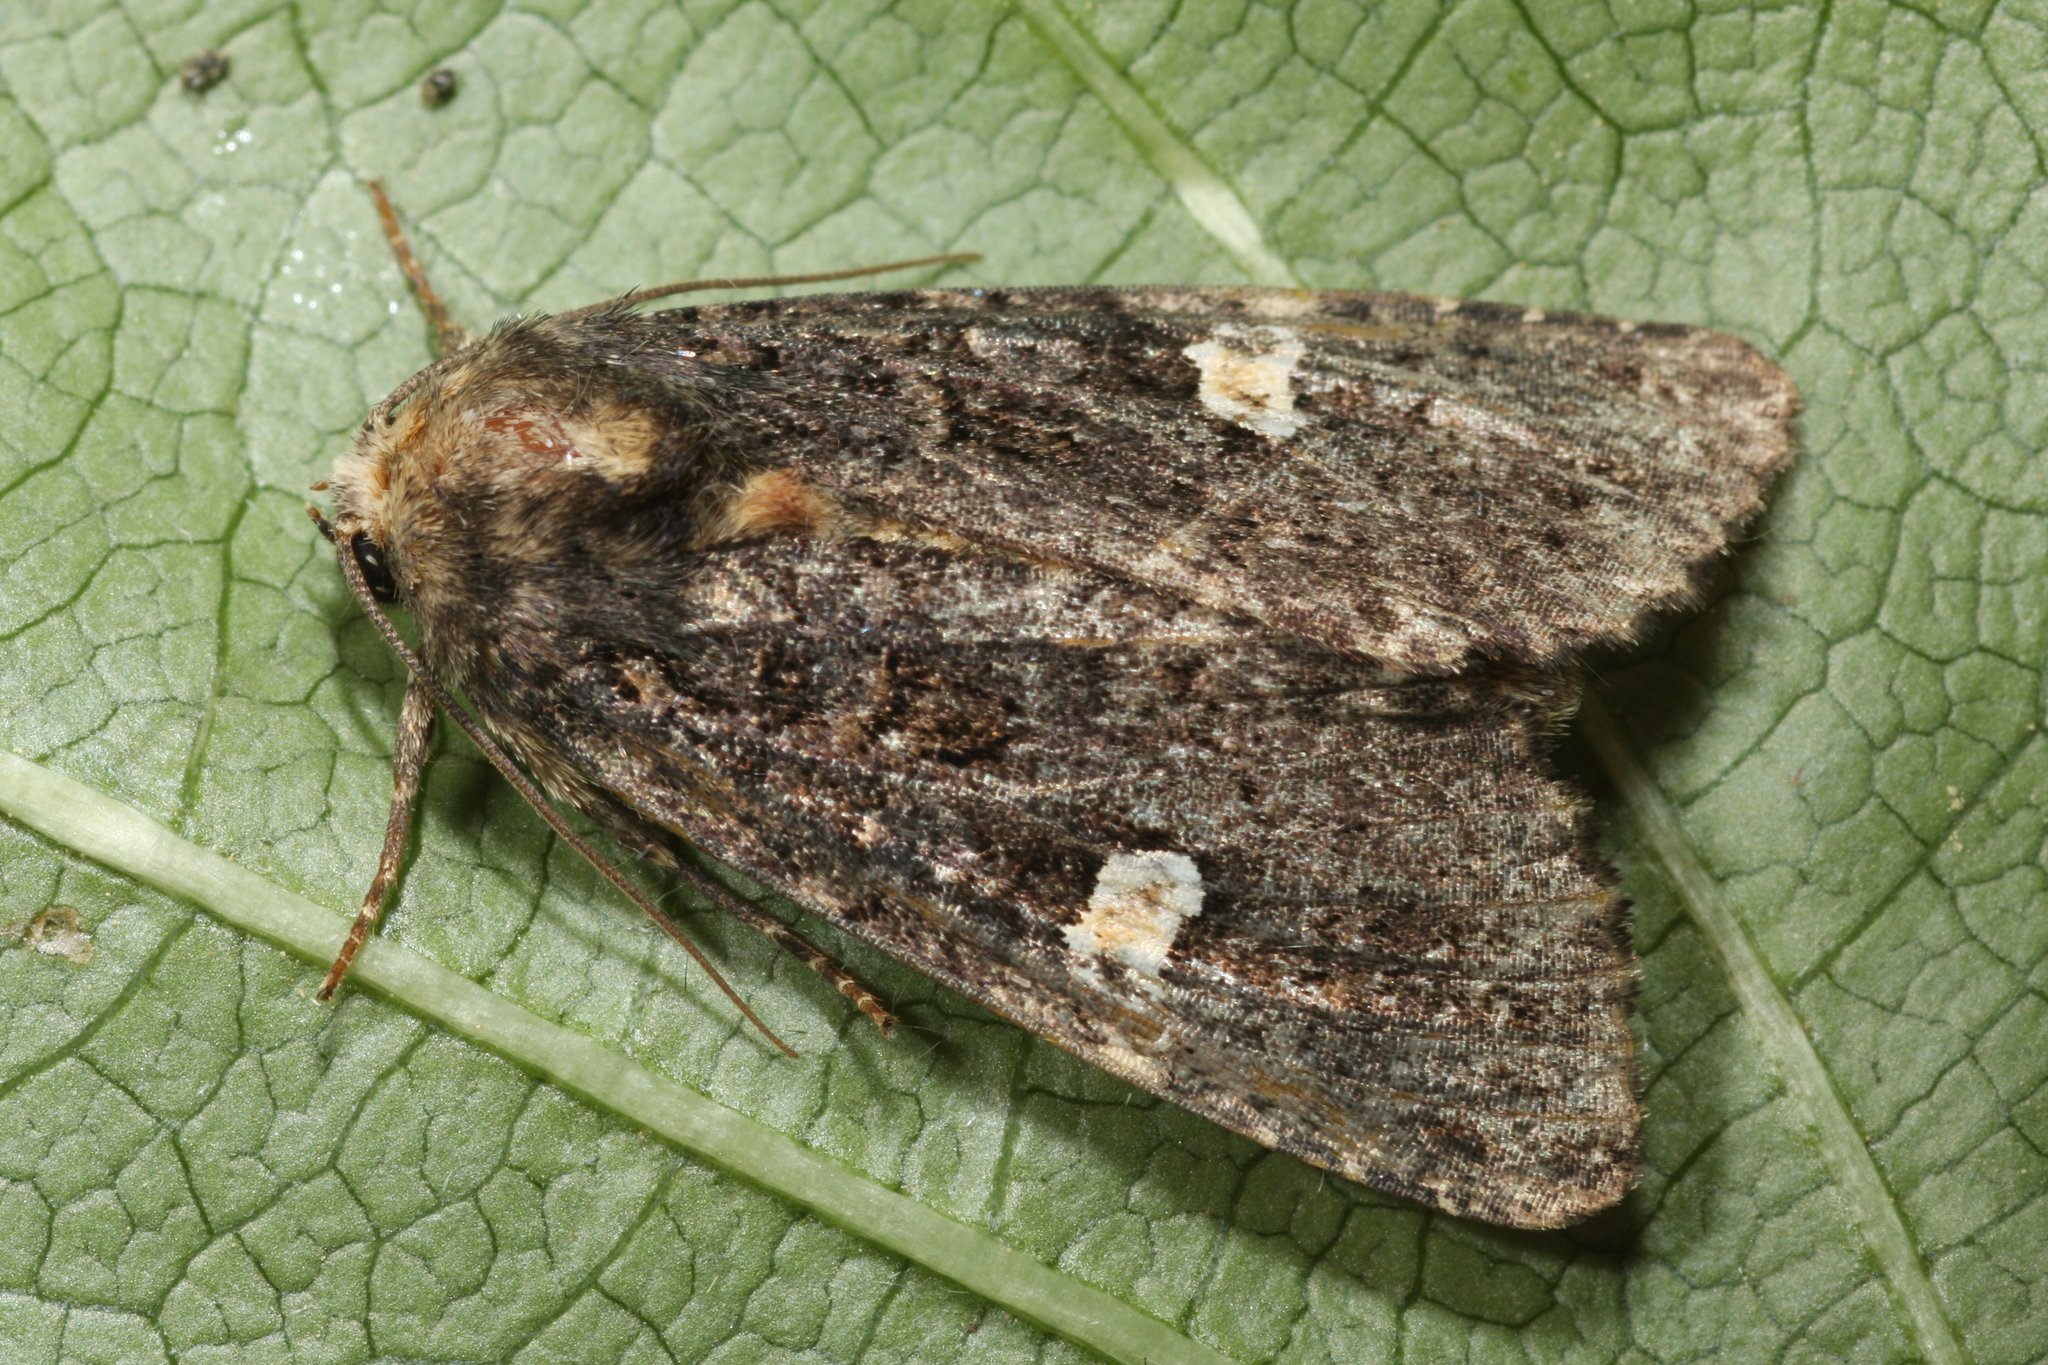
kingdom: Animalia
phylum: Arthropoda
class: Insecta
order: Lepidoptera
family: Noctuidae
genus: Melanchra
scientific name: Melanchra persicariae
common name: Dot moth
